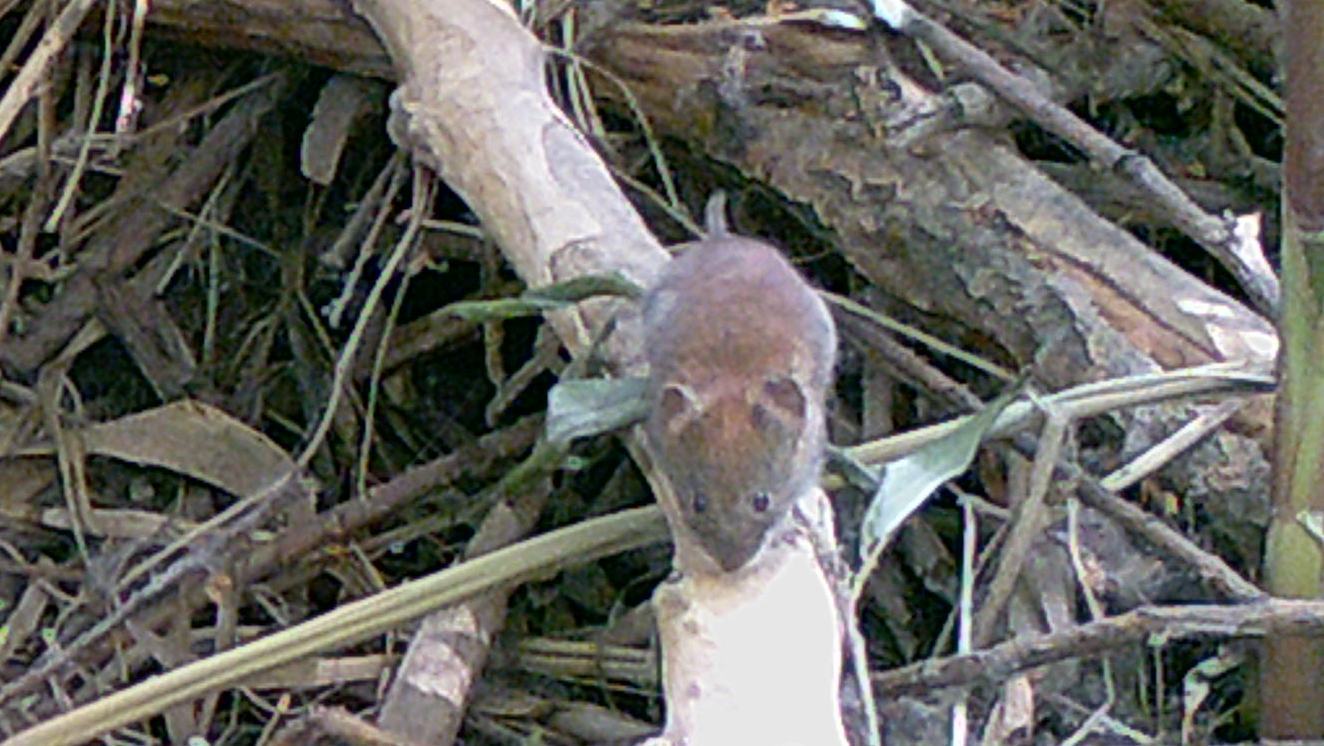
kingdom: Animalia
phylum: Chordata
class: Mammalia
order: Rodentia
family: Cricetidae
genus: Myodes
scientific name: Myodes glareolus
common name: Bank vole
